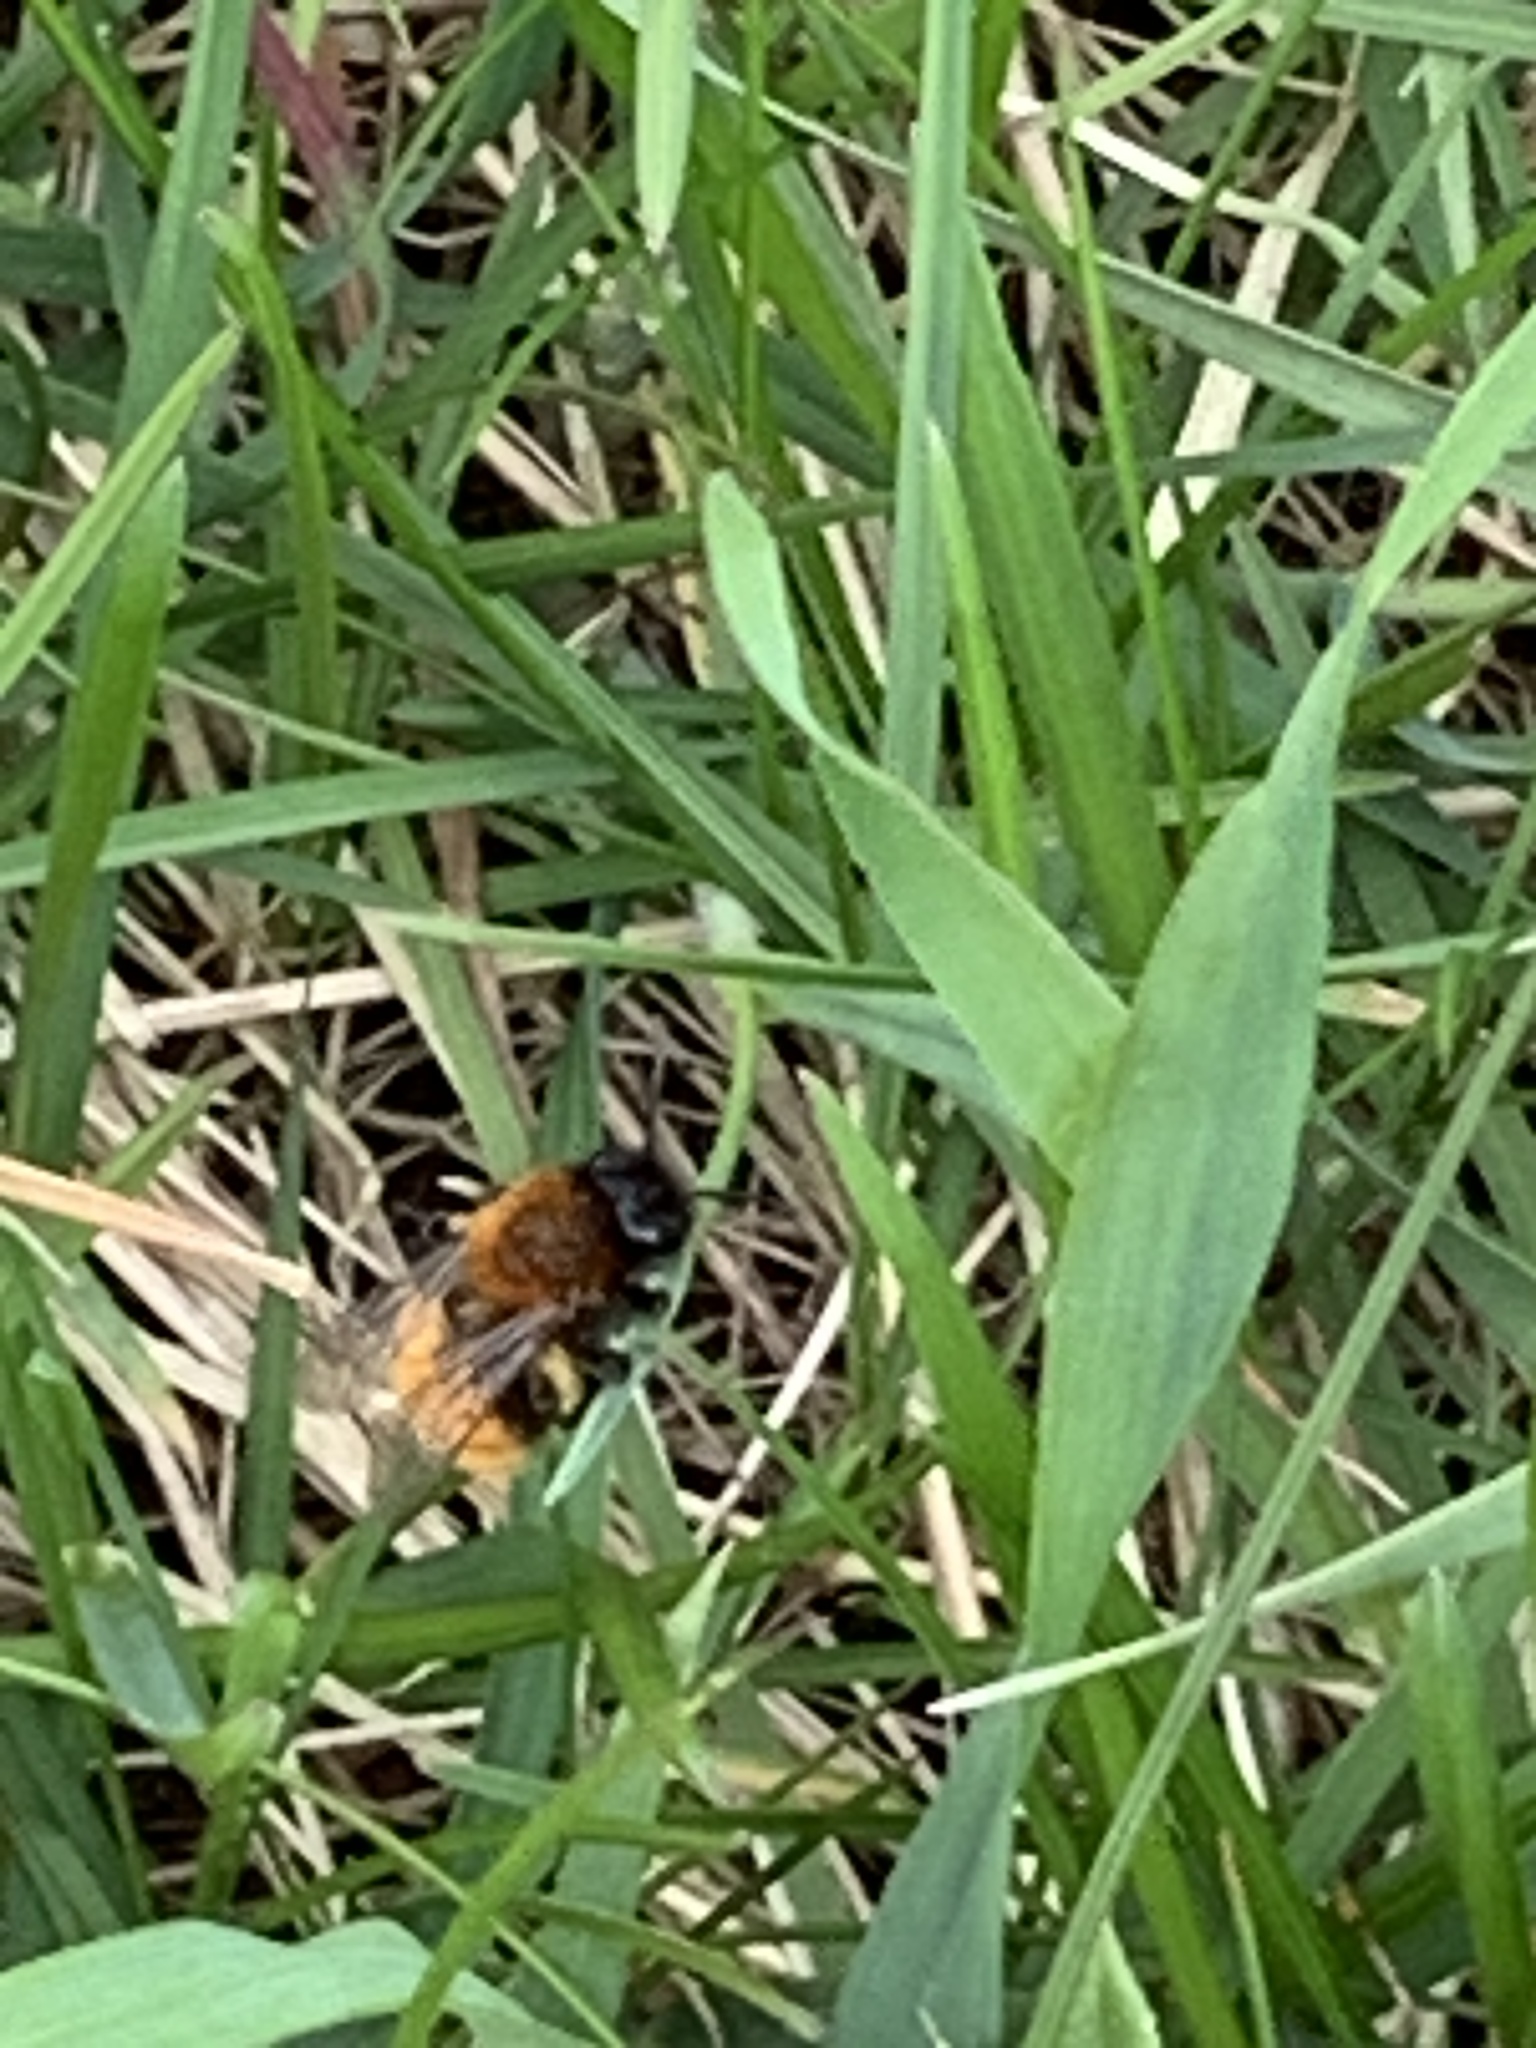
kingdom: Animalia
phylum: Arthropoda
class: Insecta
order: Hymenoptera
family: Andrenidae
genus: Andrena
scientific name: Andrena fulva
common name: Tawny mining bee
